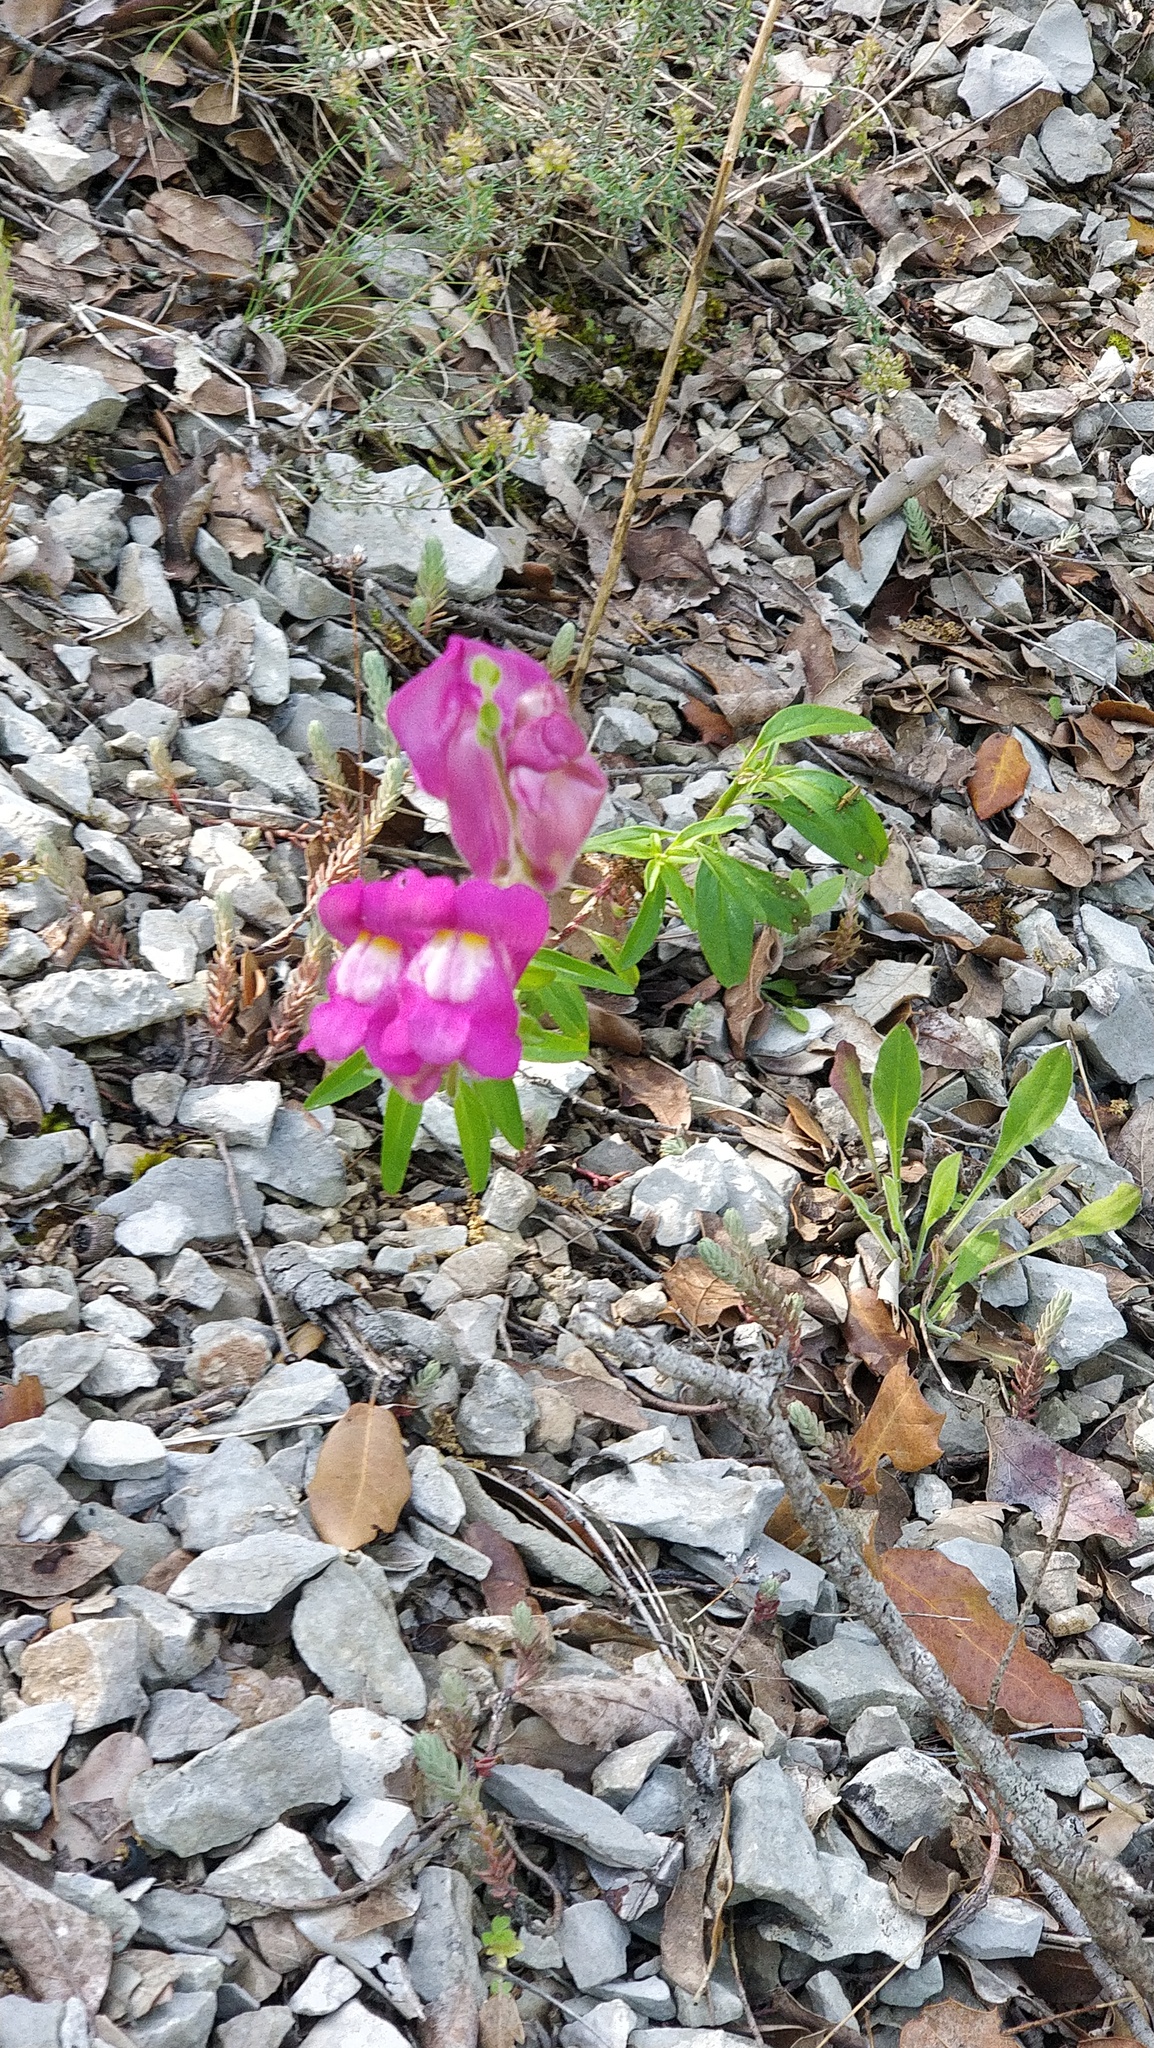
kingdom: Plantae
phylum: Tracheophyta
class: Magnoliopsida
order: Lamiales
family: Plantaginaceae
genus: Antirrhinum
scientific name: Antirrhinum majus
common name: Snapdragon
